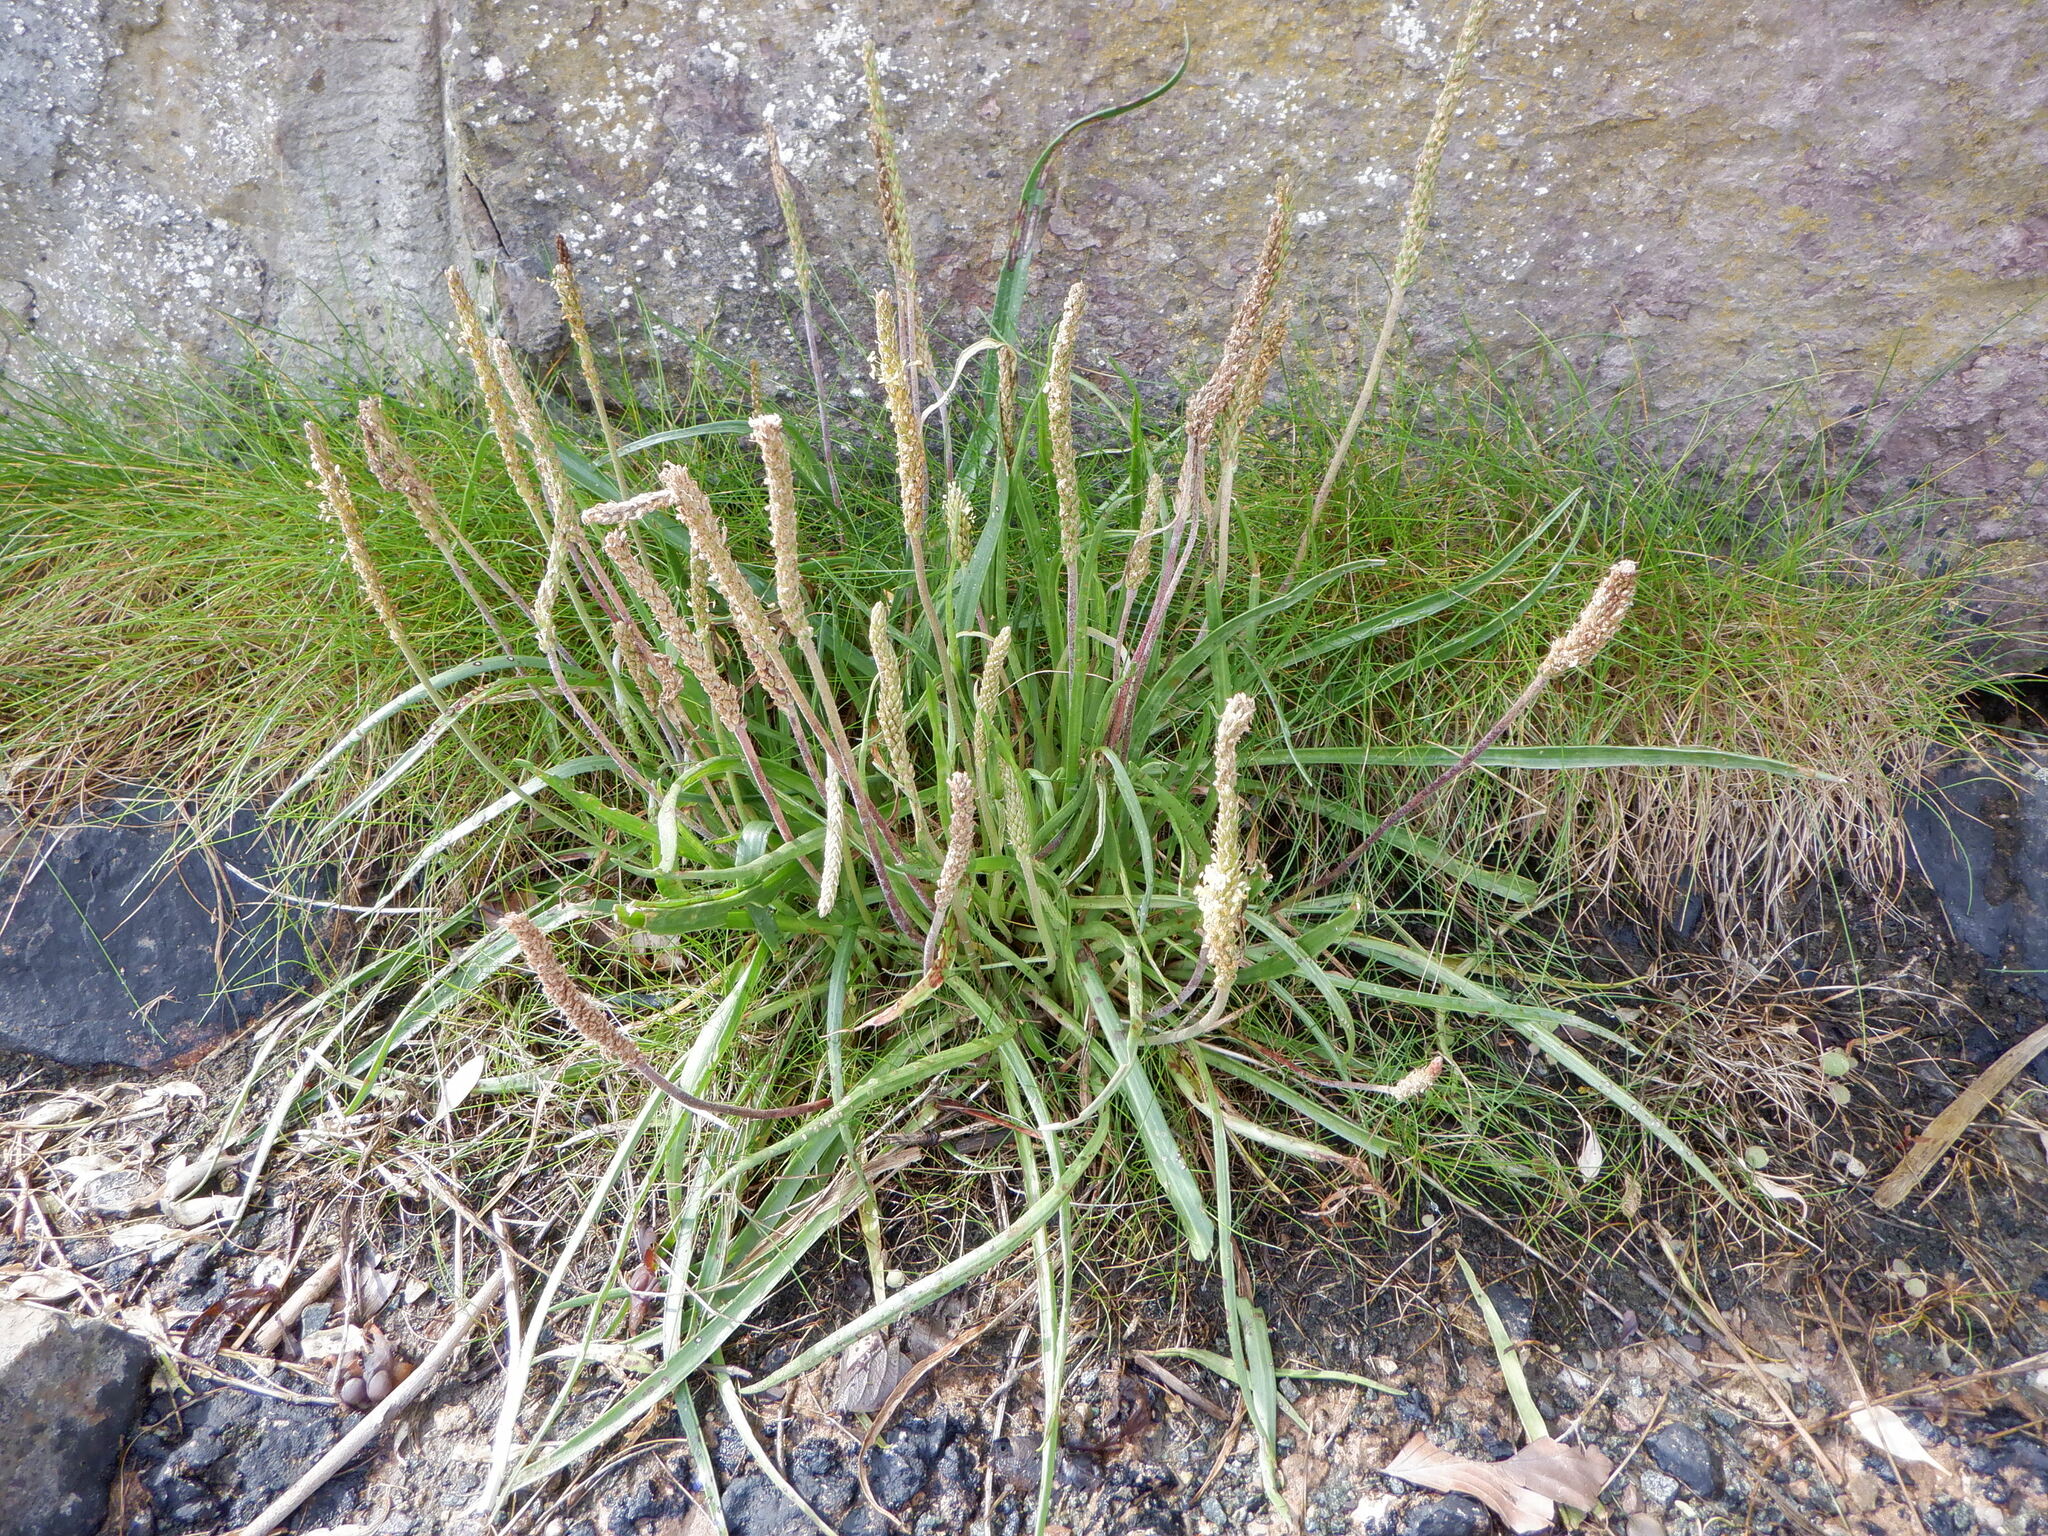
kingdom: Plantae
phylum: Tracheophyta
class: Magnoliopsida
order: Lamiales
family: Plantaginaceae
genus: Plantago
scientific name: Plantago maritima
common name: Sea plantain
